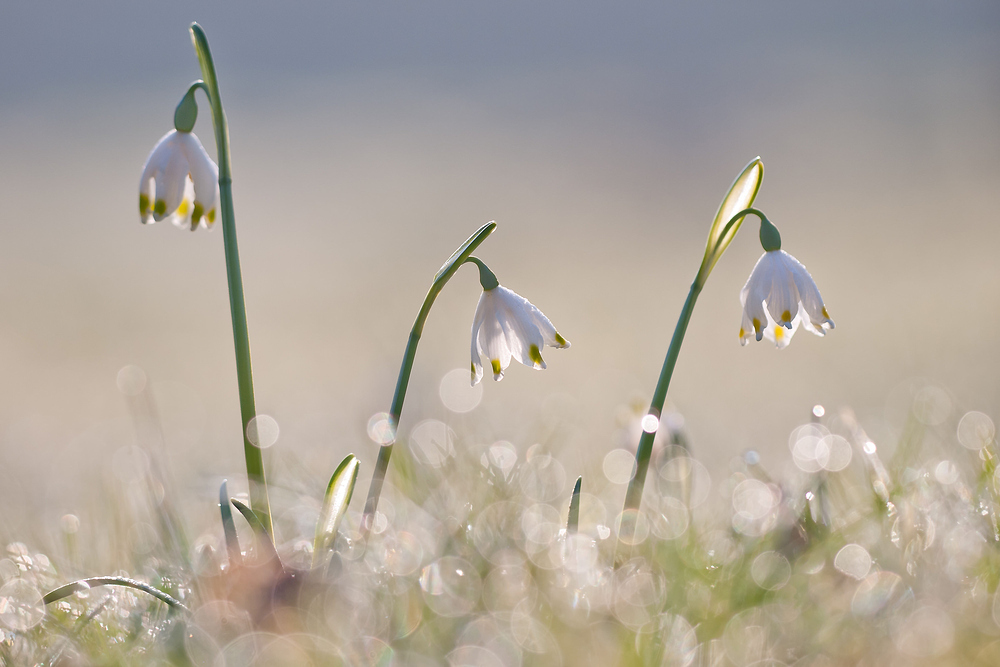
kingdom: Plantae
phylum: Tracheophyta
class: Liliopsida
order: Asparagales
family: Amaryllidaceae
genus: Leucojum
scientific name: Leucojum vernum
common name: Spring snowflake
